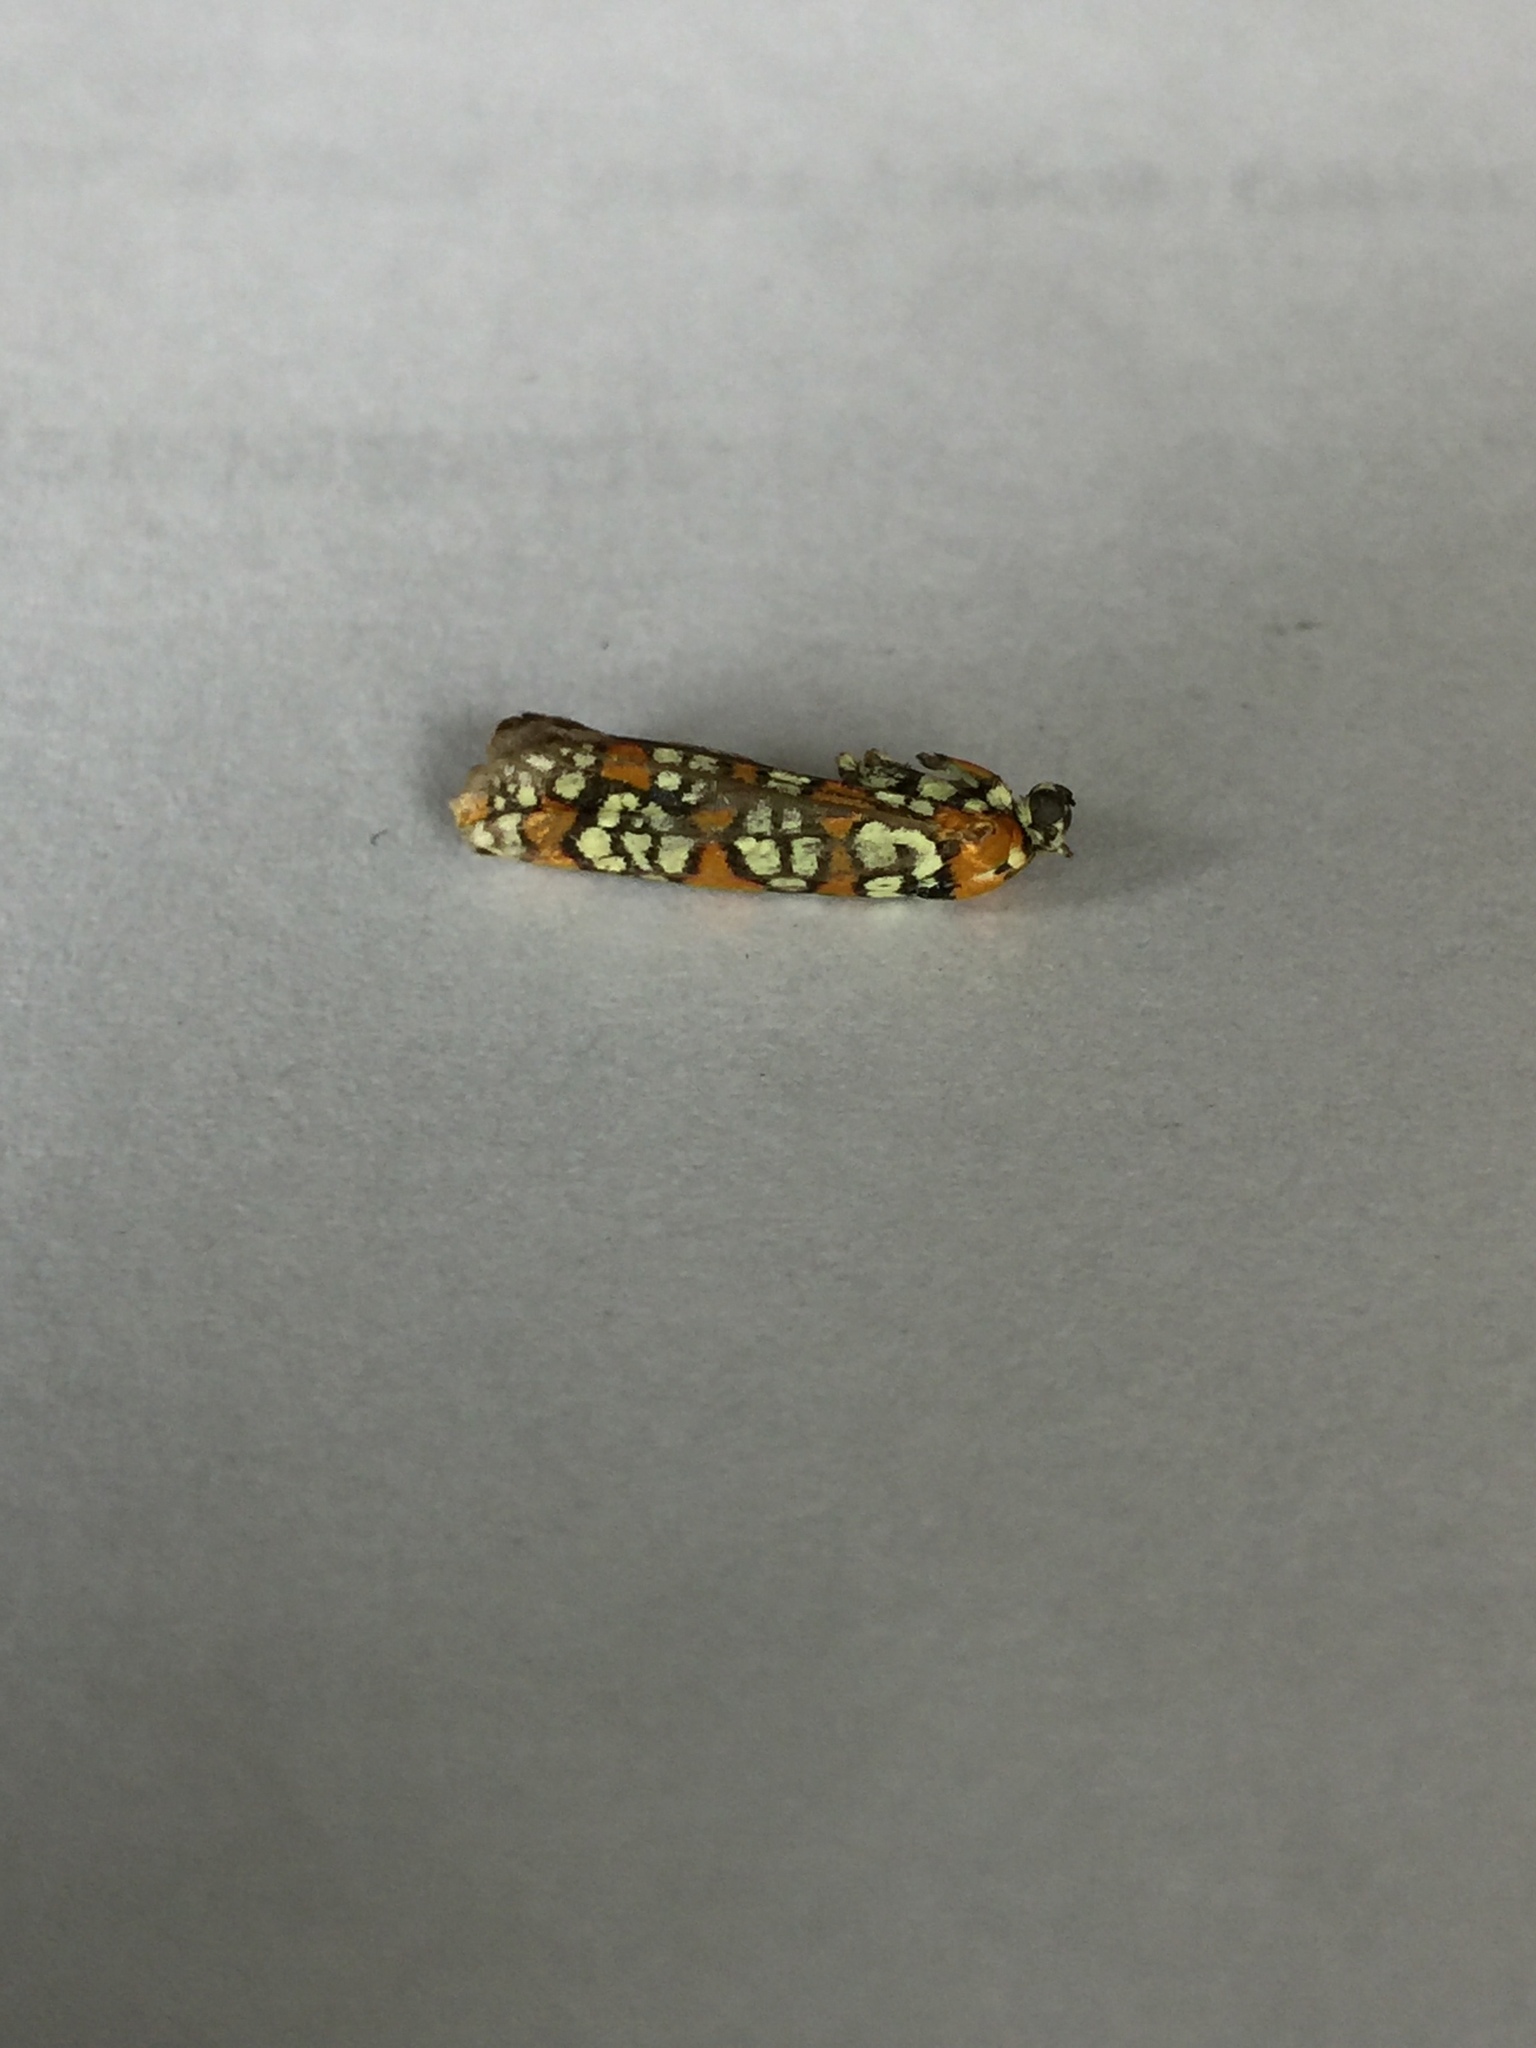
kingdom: Animalia
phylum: Arthropoda
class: Insecta
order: Lepidoptera
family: Attevidae
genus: Atteva
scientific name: Atteva punctella
